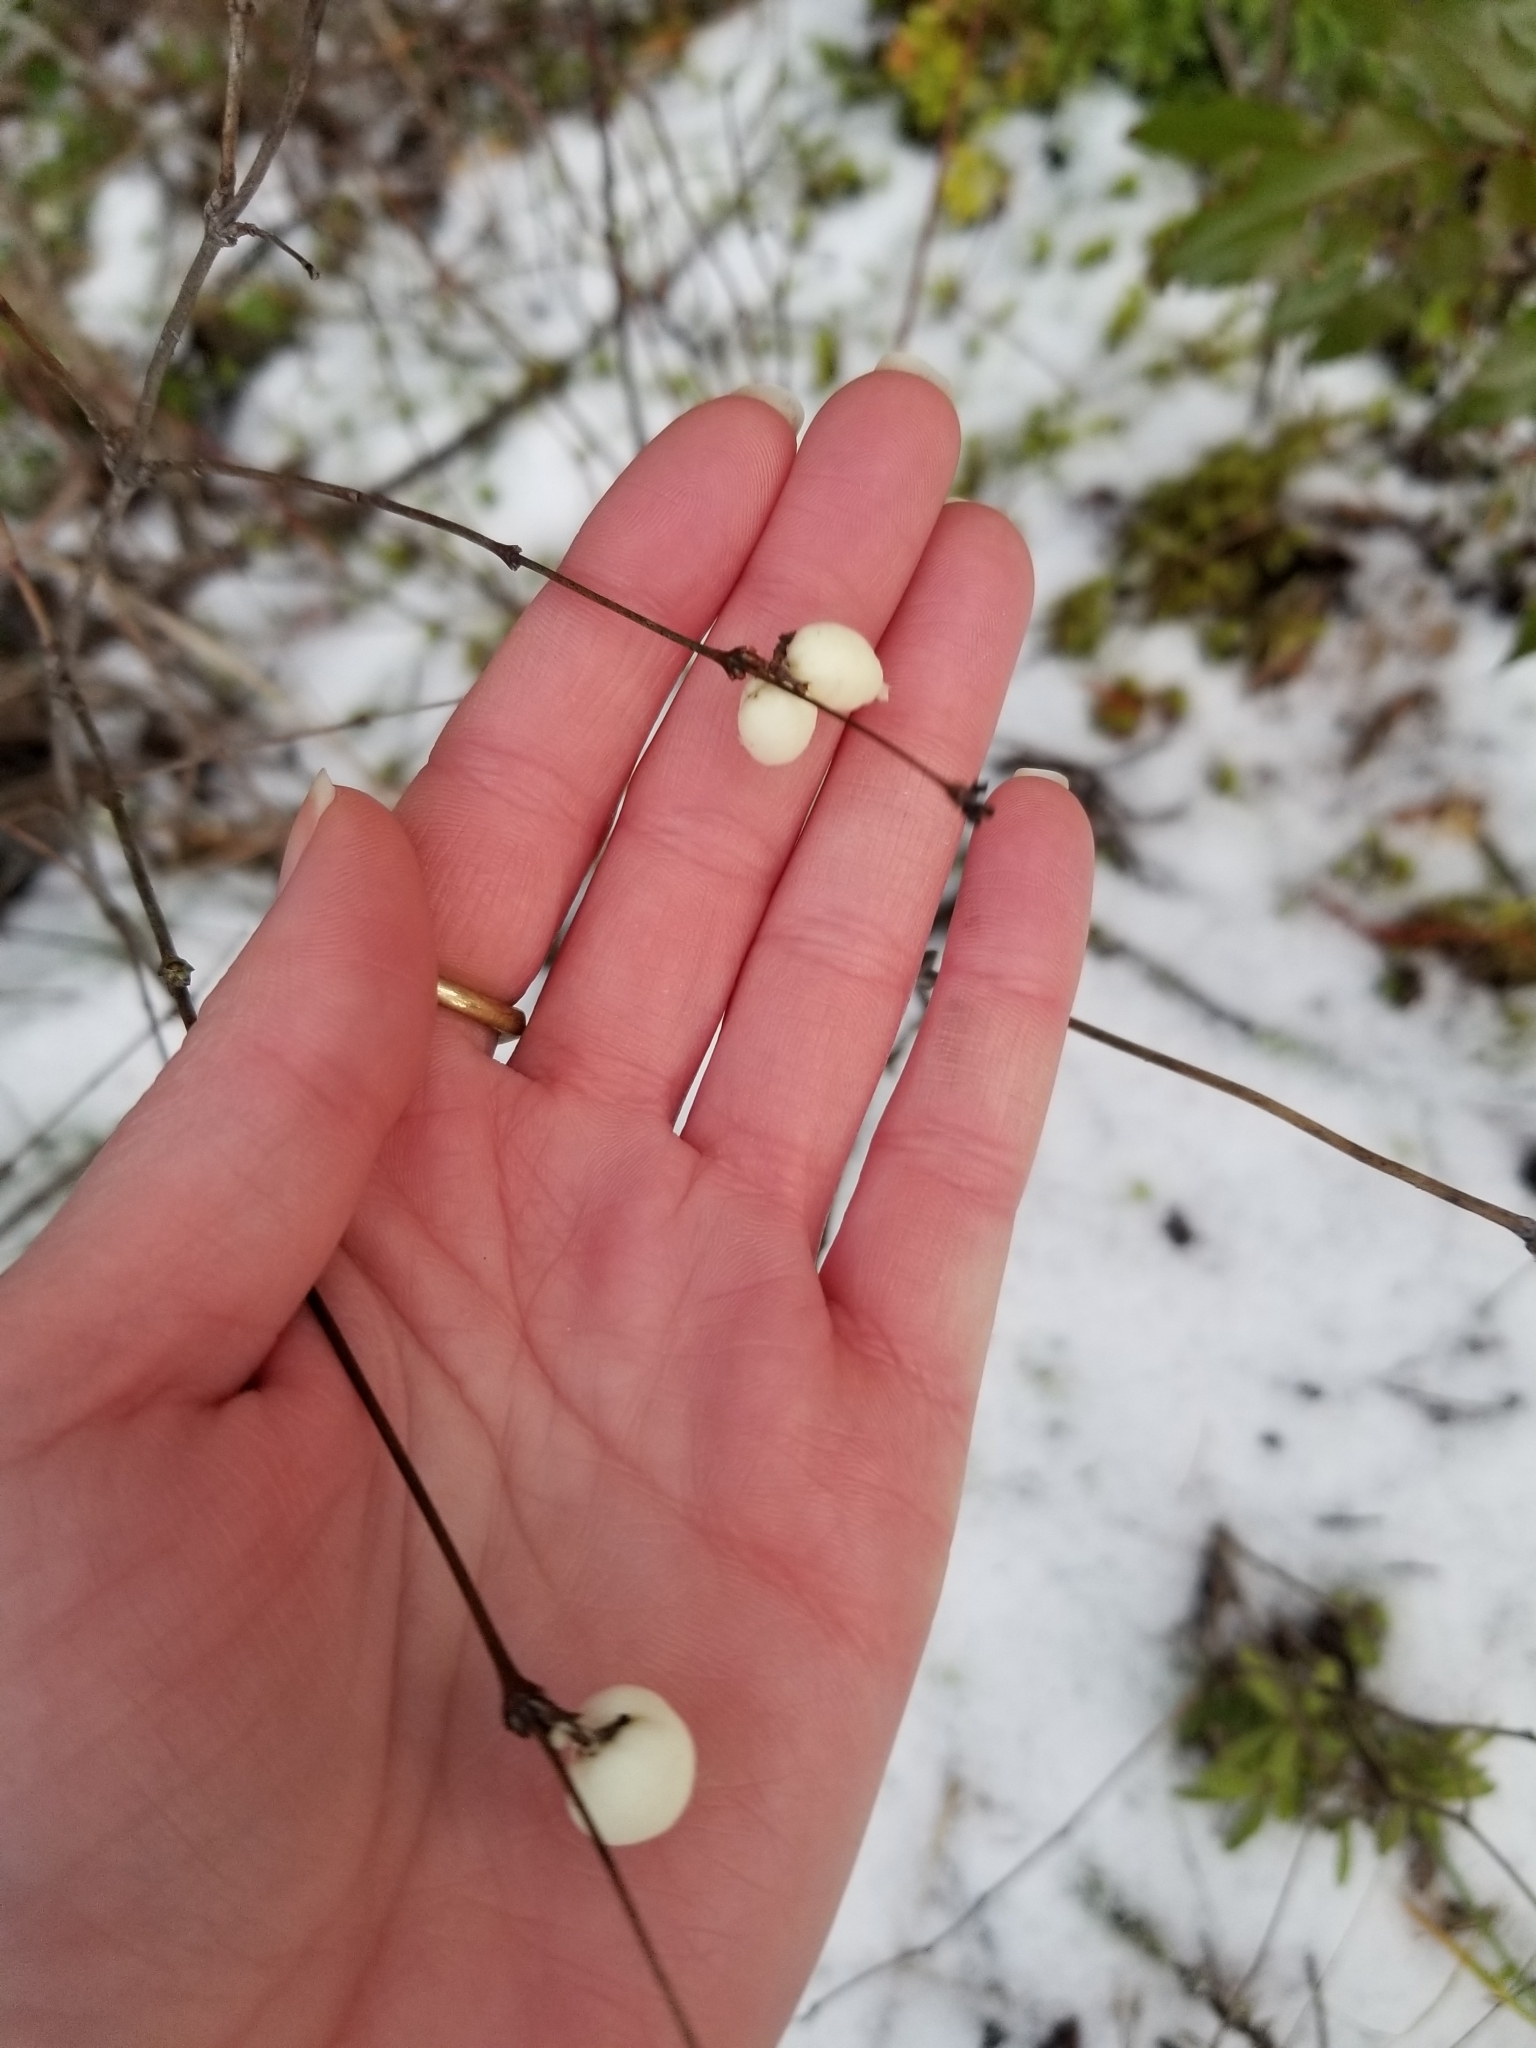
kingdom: Plantae
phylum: Tracheophyta
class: Magnoliopsida
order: Dipsacales
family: Caprifoliaceae
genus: Symphoricarpos
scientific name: Symphoricarpos albus
